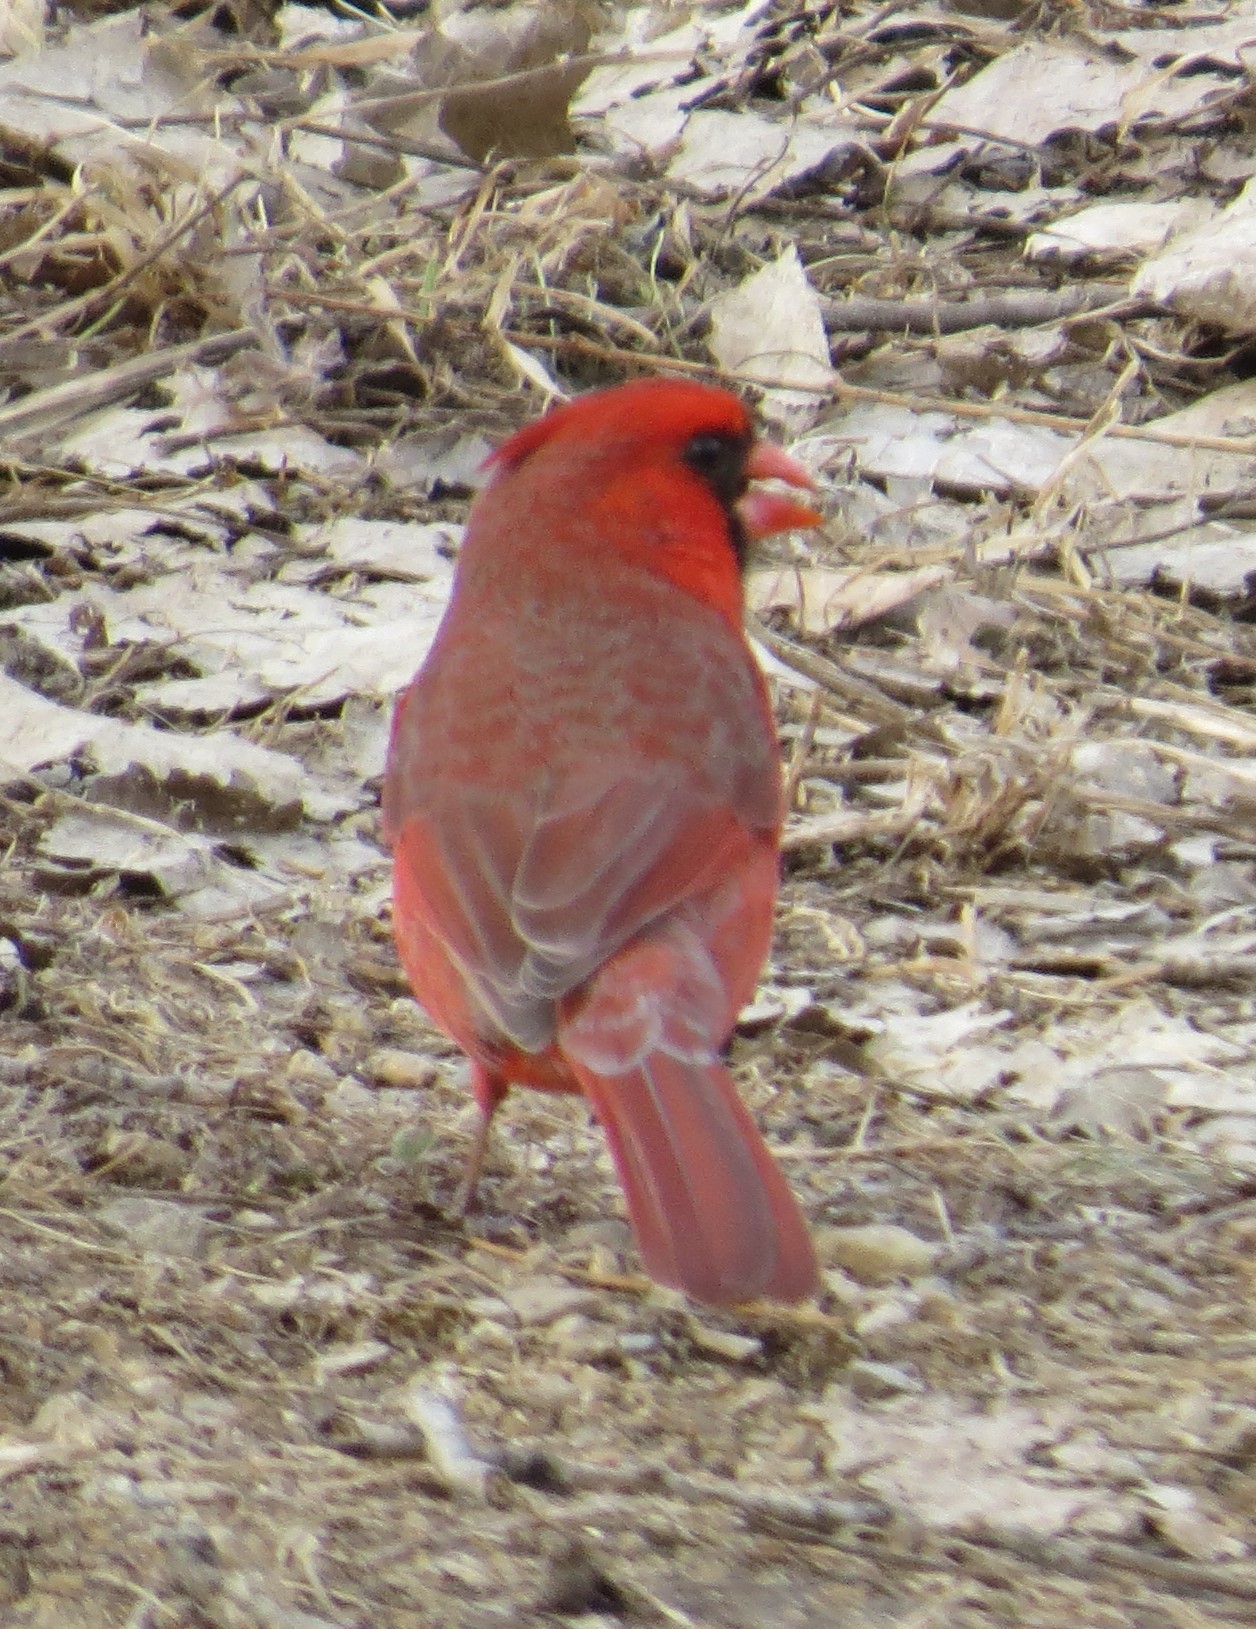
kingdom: Animalia
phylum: Chordata
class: Aves
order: Passeriformes
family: Cardinalidae
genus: Cardinalis
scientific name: Cardinalis cardinalis
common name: Northern cardinal
